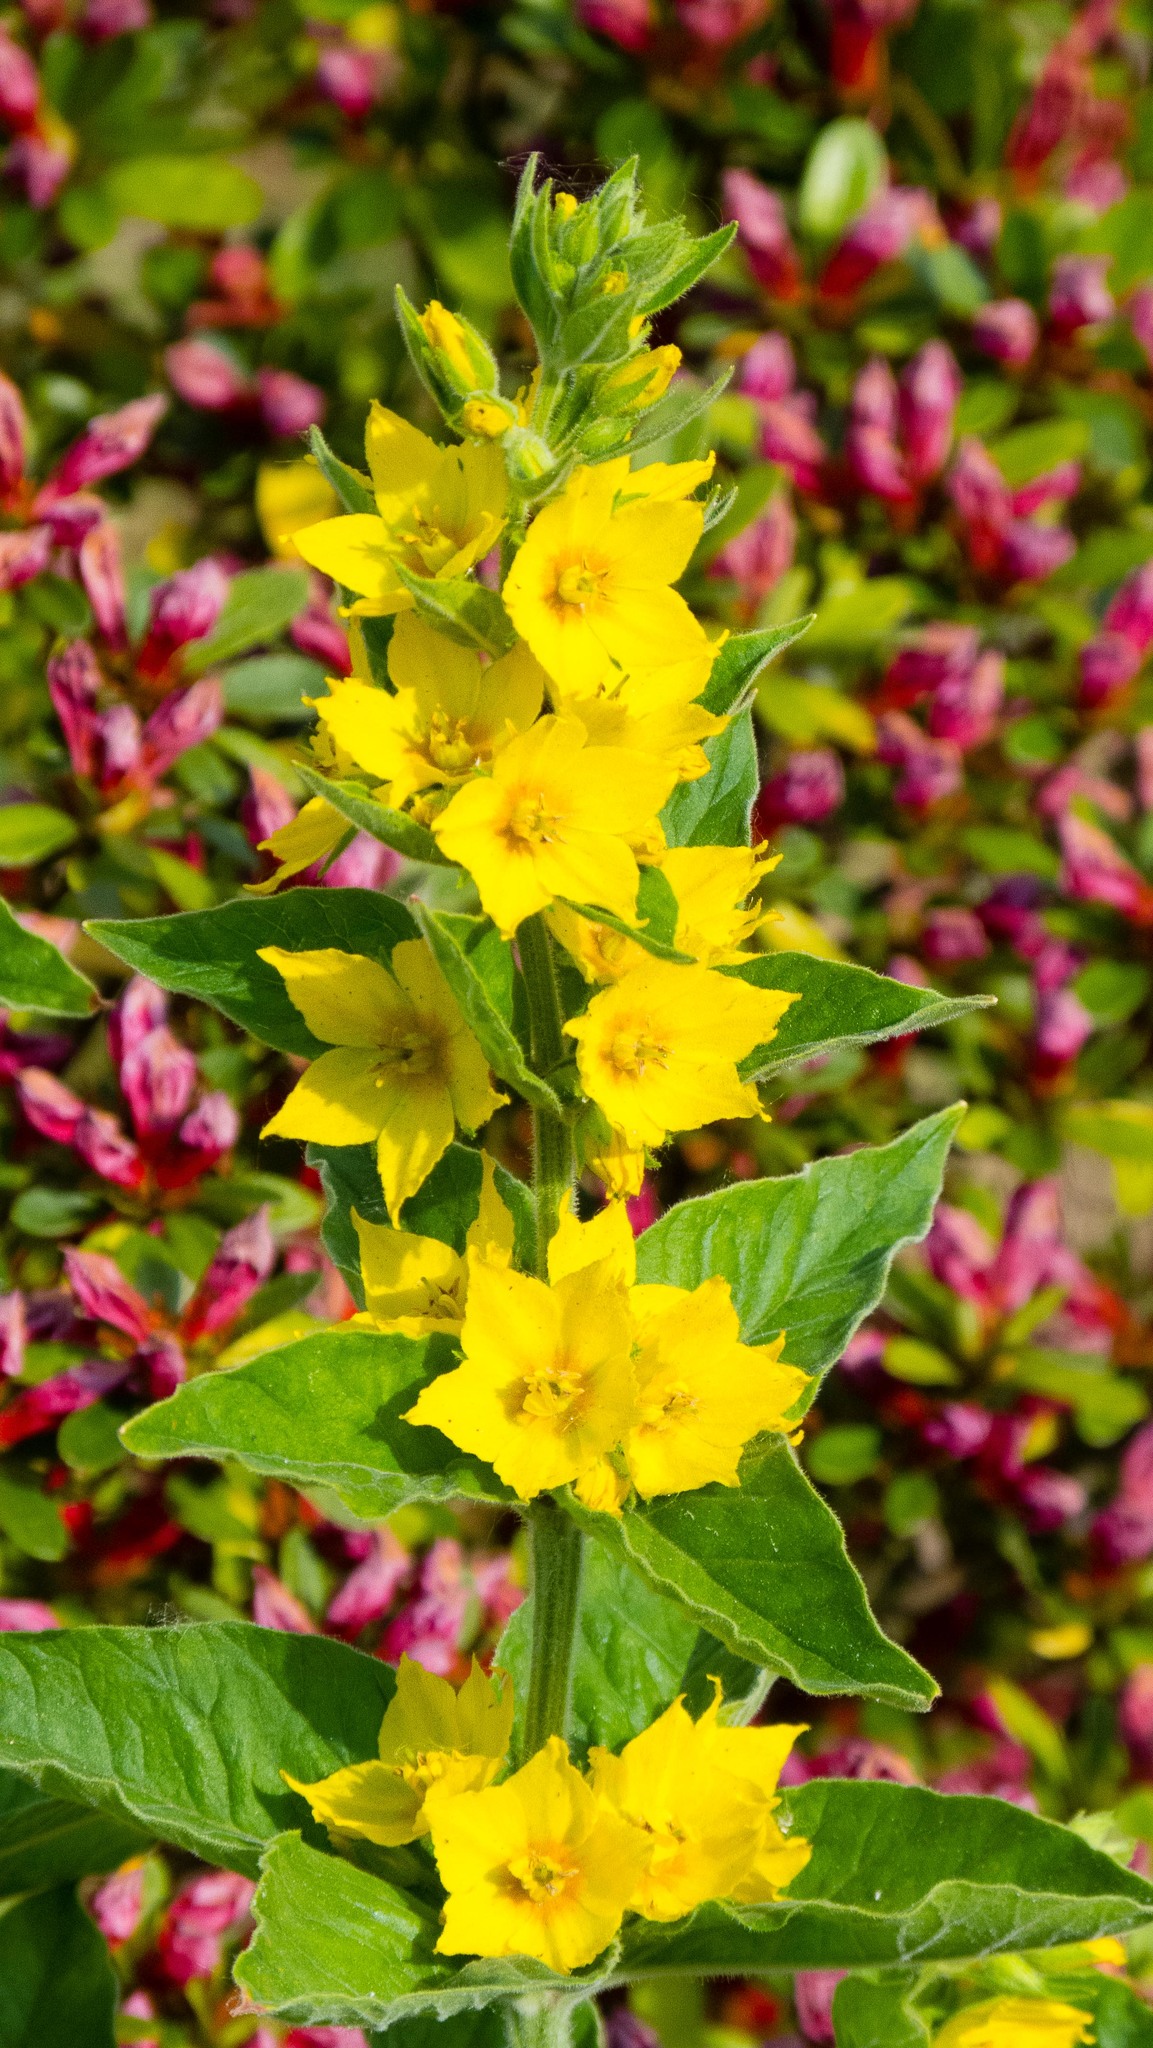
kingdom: Plantae
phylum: Tracheophyta
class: Magnoliopsida
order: Ericales
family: Primulaceae
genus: Lysimachia
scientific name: Lysimachia punctata
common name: Dotted loosestrife
